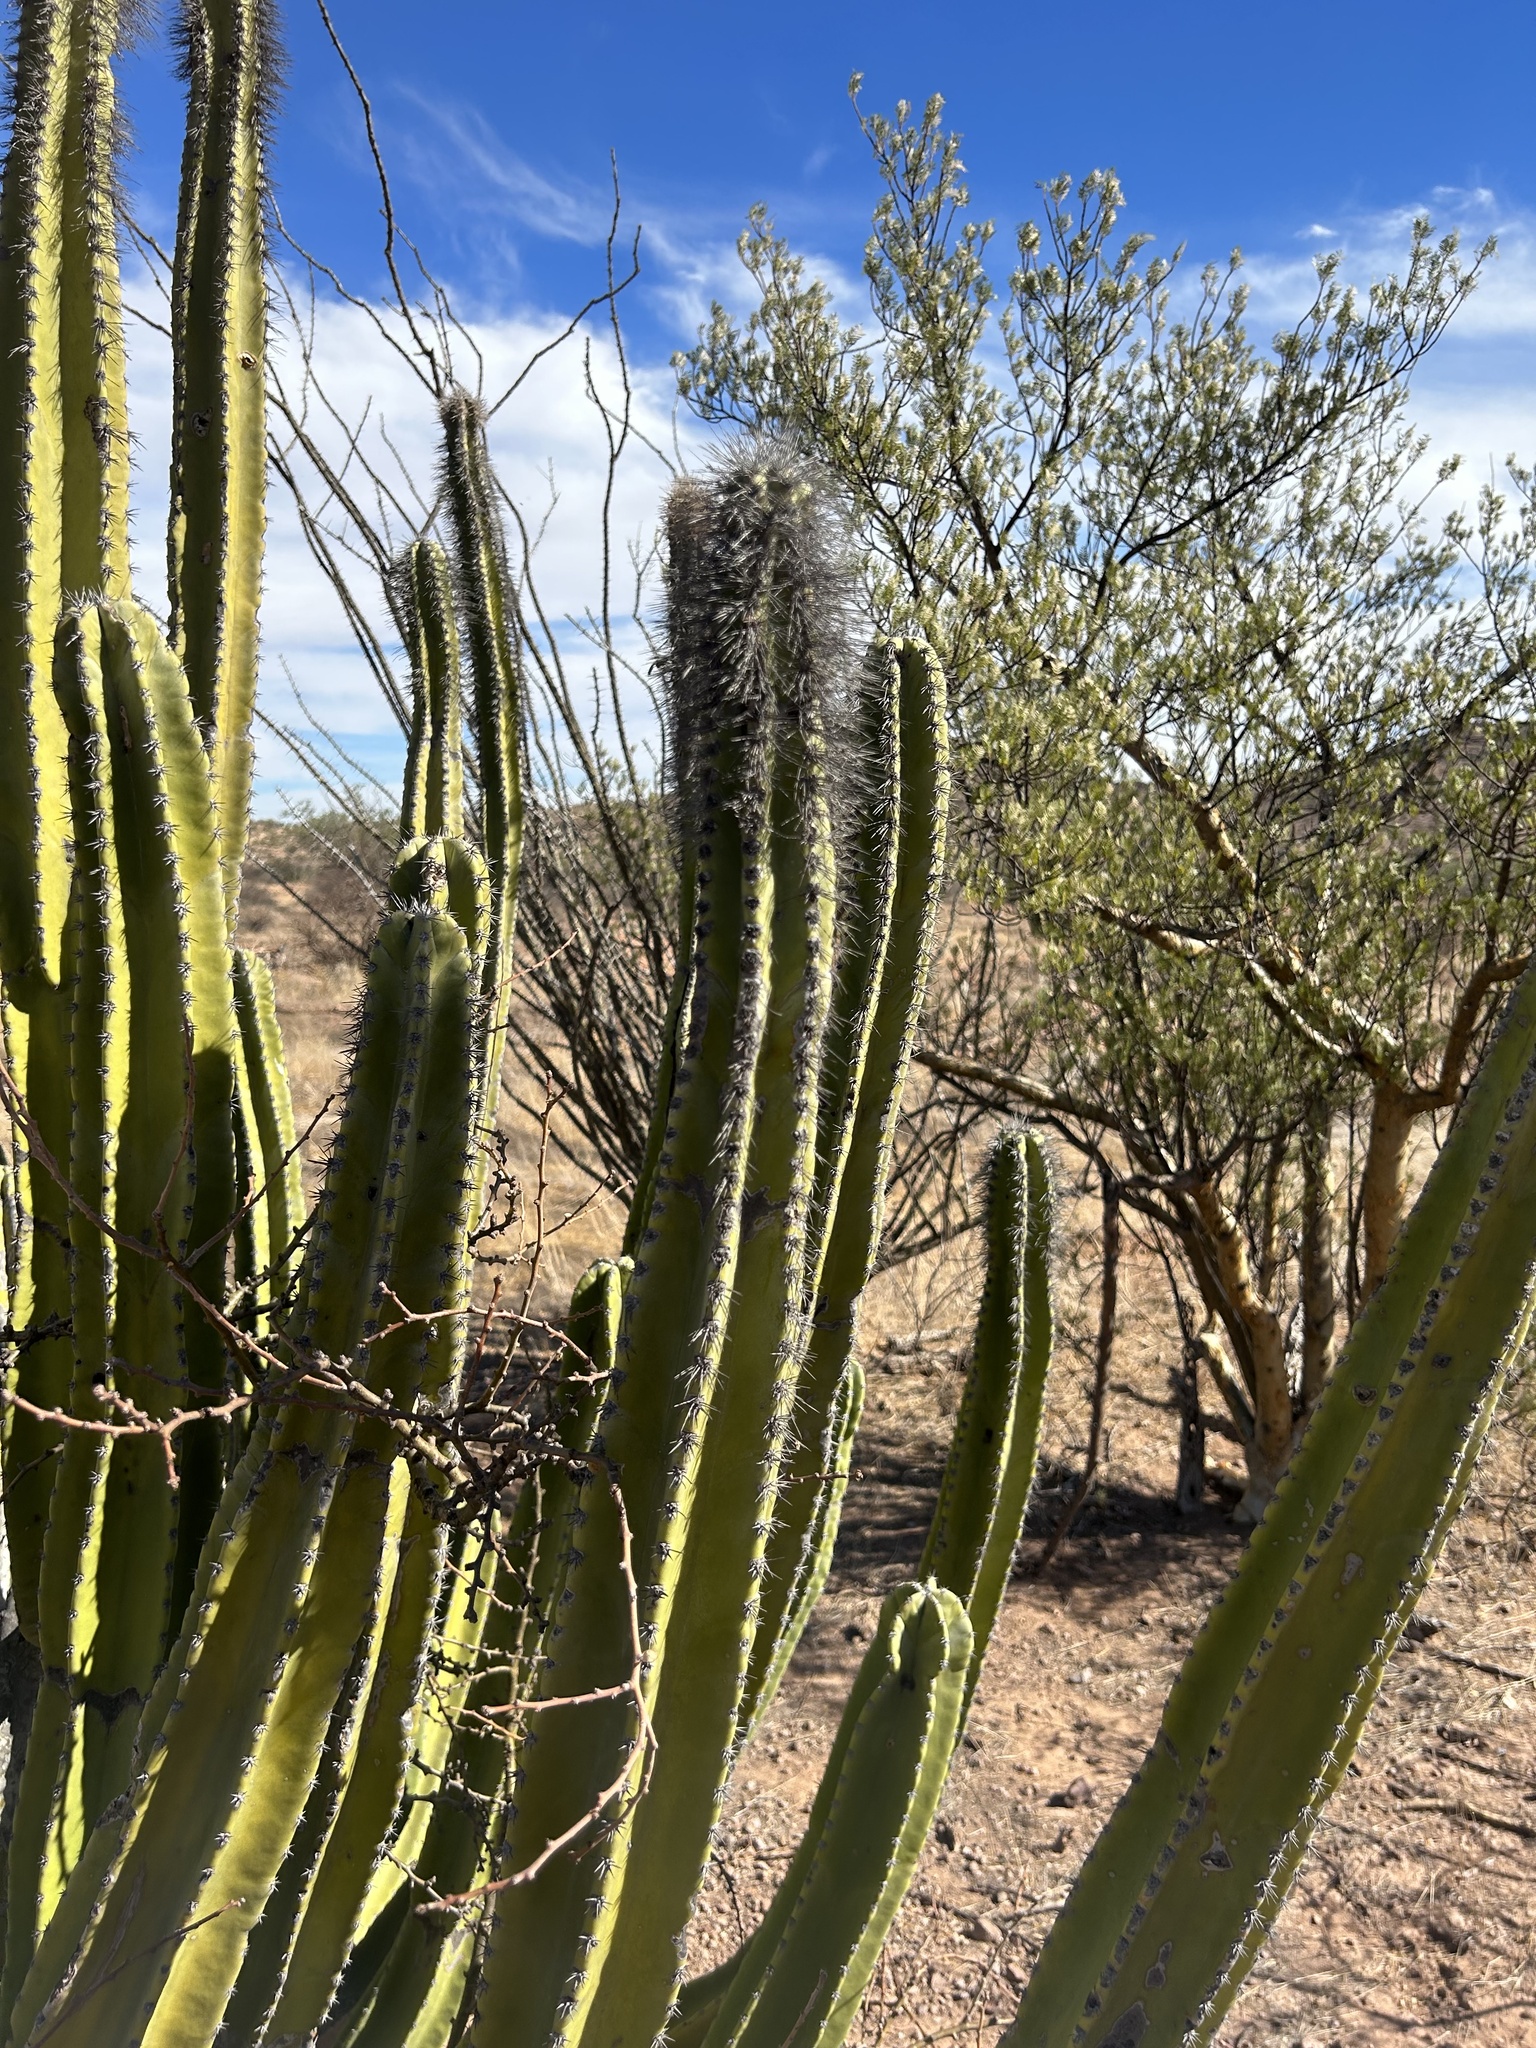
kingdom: Plantae
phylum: Tracheophyta
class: Magnoliopsida
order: Caryophyllales
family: Cactaceae
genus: Pachycereus
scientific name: Pachycereus schottii
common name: Senita cactus
